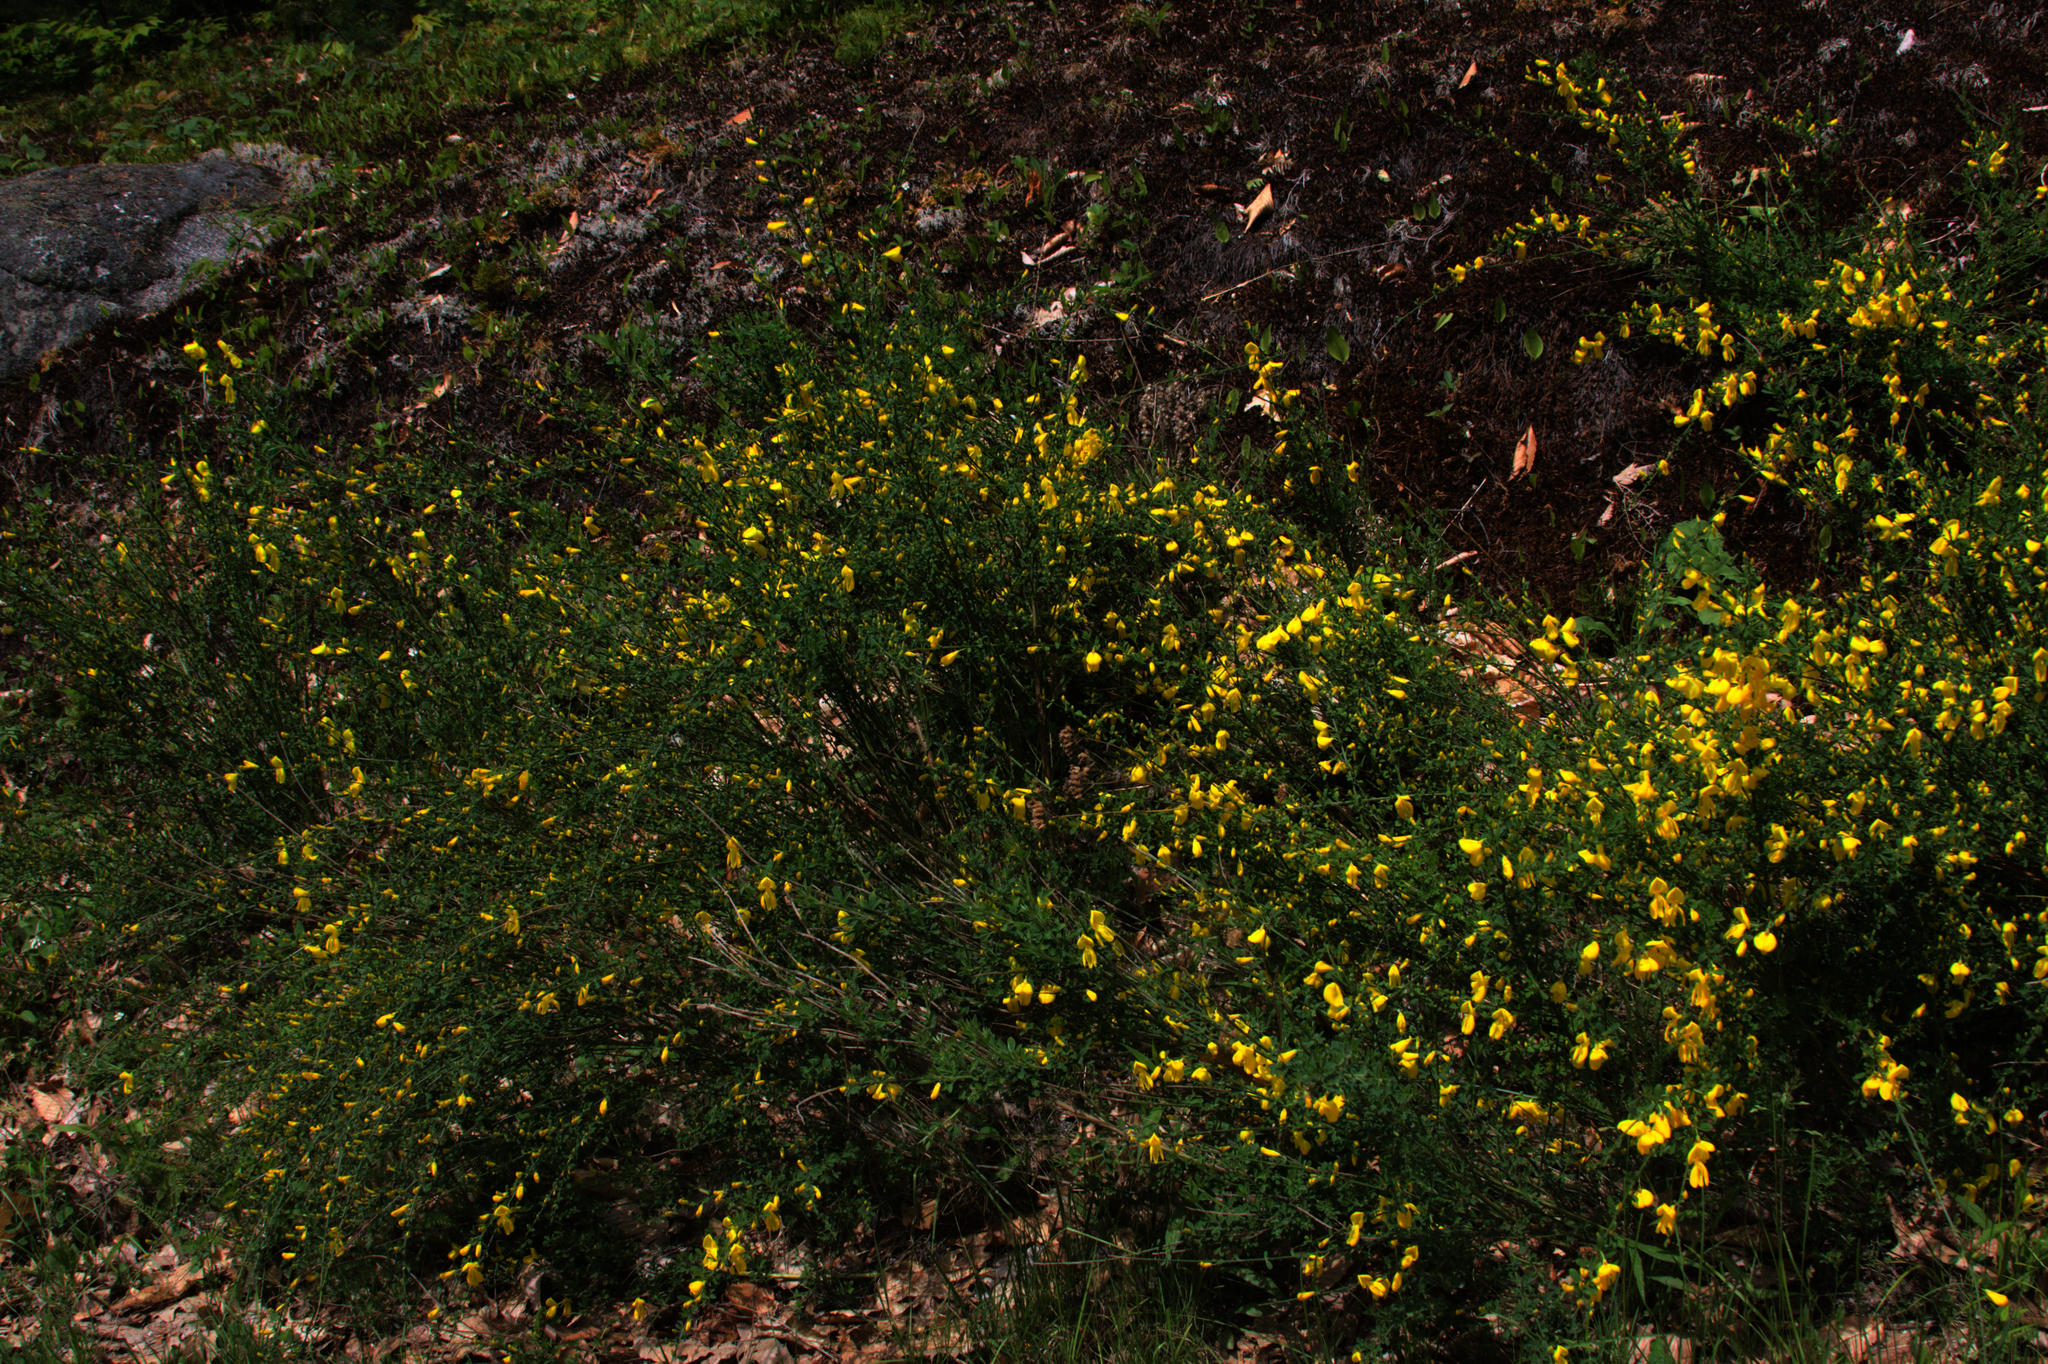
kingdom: Plantae
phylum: Tracheophyta
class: Magnoliopsida
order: Fabales
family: Fabaceae
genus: Cytisus
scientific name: Cytisus scoparius
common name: Scotch broom
